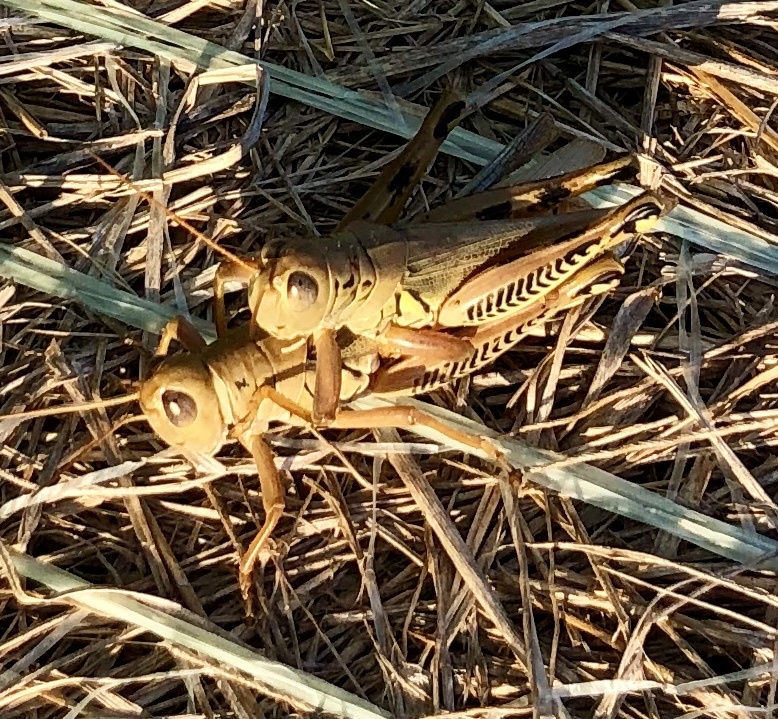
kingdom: Animalia
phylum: Arthropoda
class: Insecta
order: Orthoptera
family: Acrididae
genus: Melanoplus
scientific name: Melanoplus differentialis
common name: Differential grasshopper
